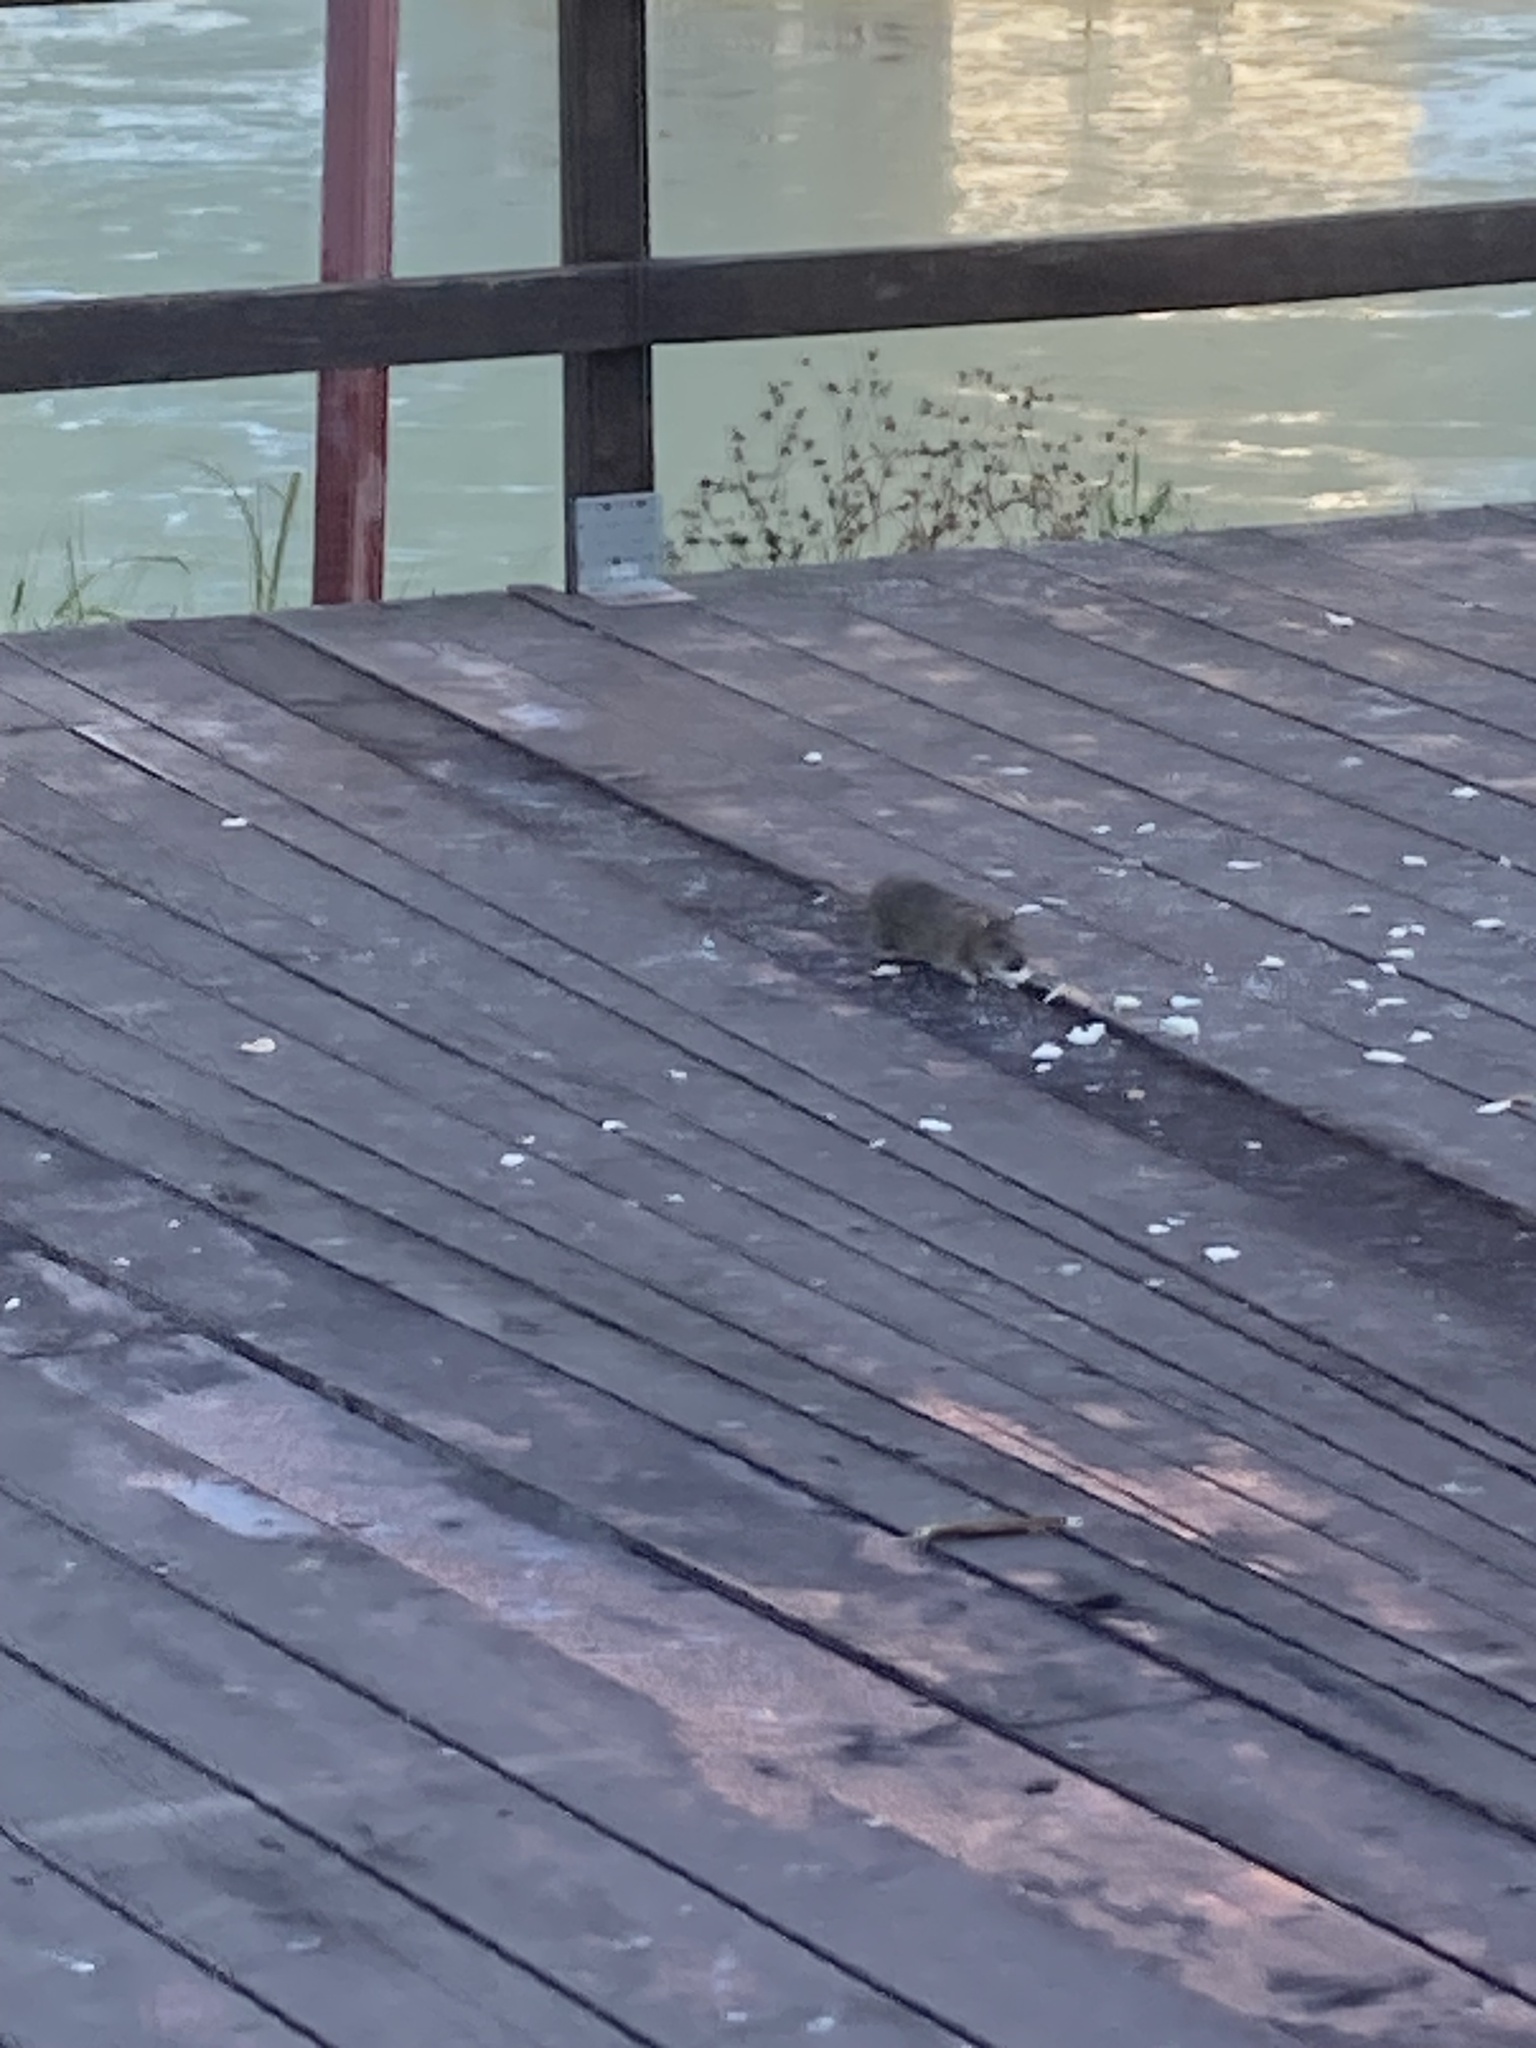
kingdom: Animalia
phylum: Chordata
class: Mammalia
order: Rodentia
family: Muridae
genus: Rattus
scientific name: Rattus norvegicus
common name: Brown rat
